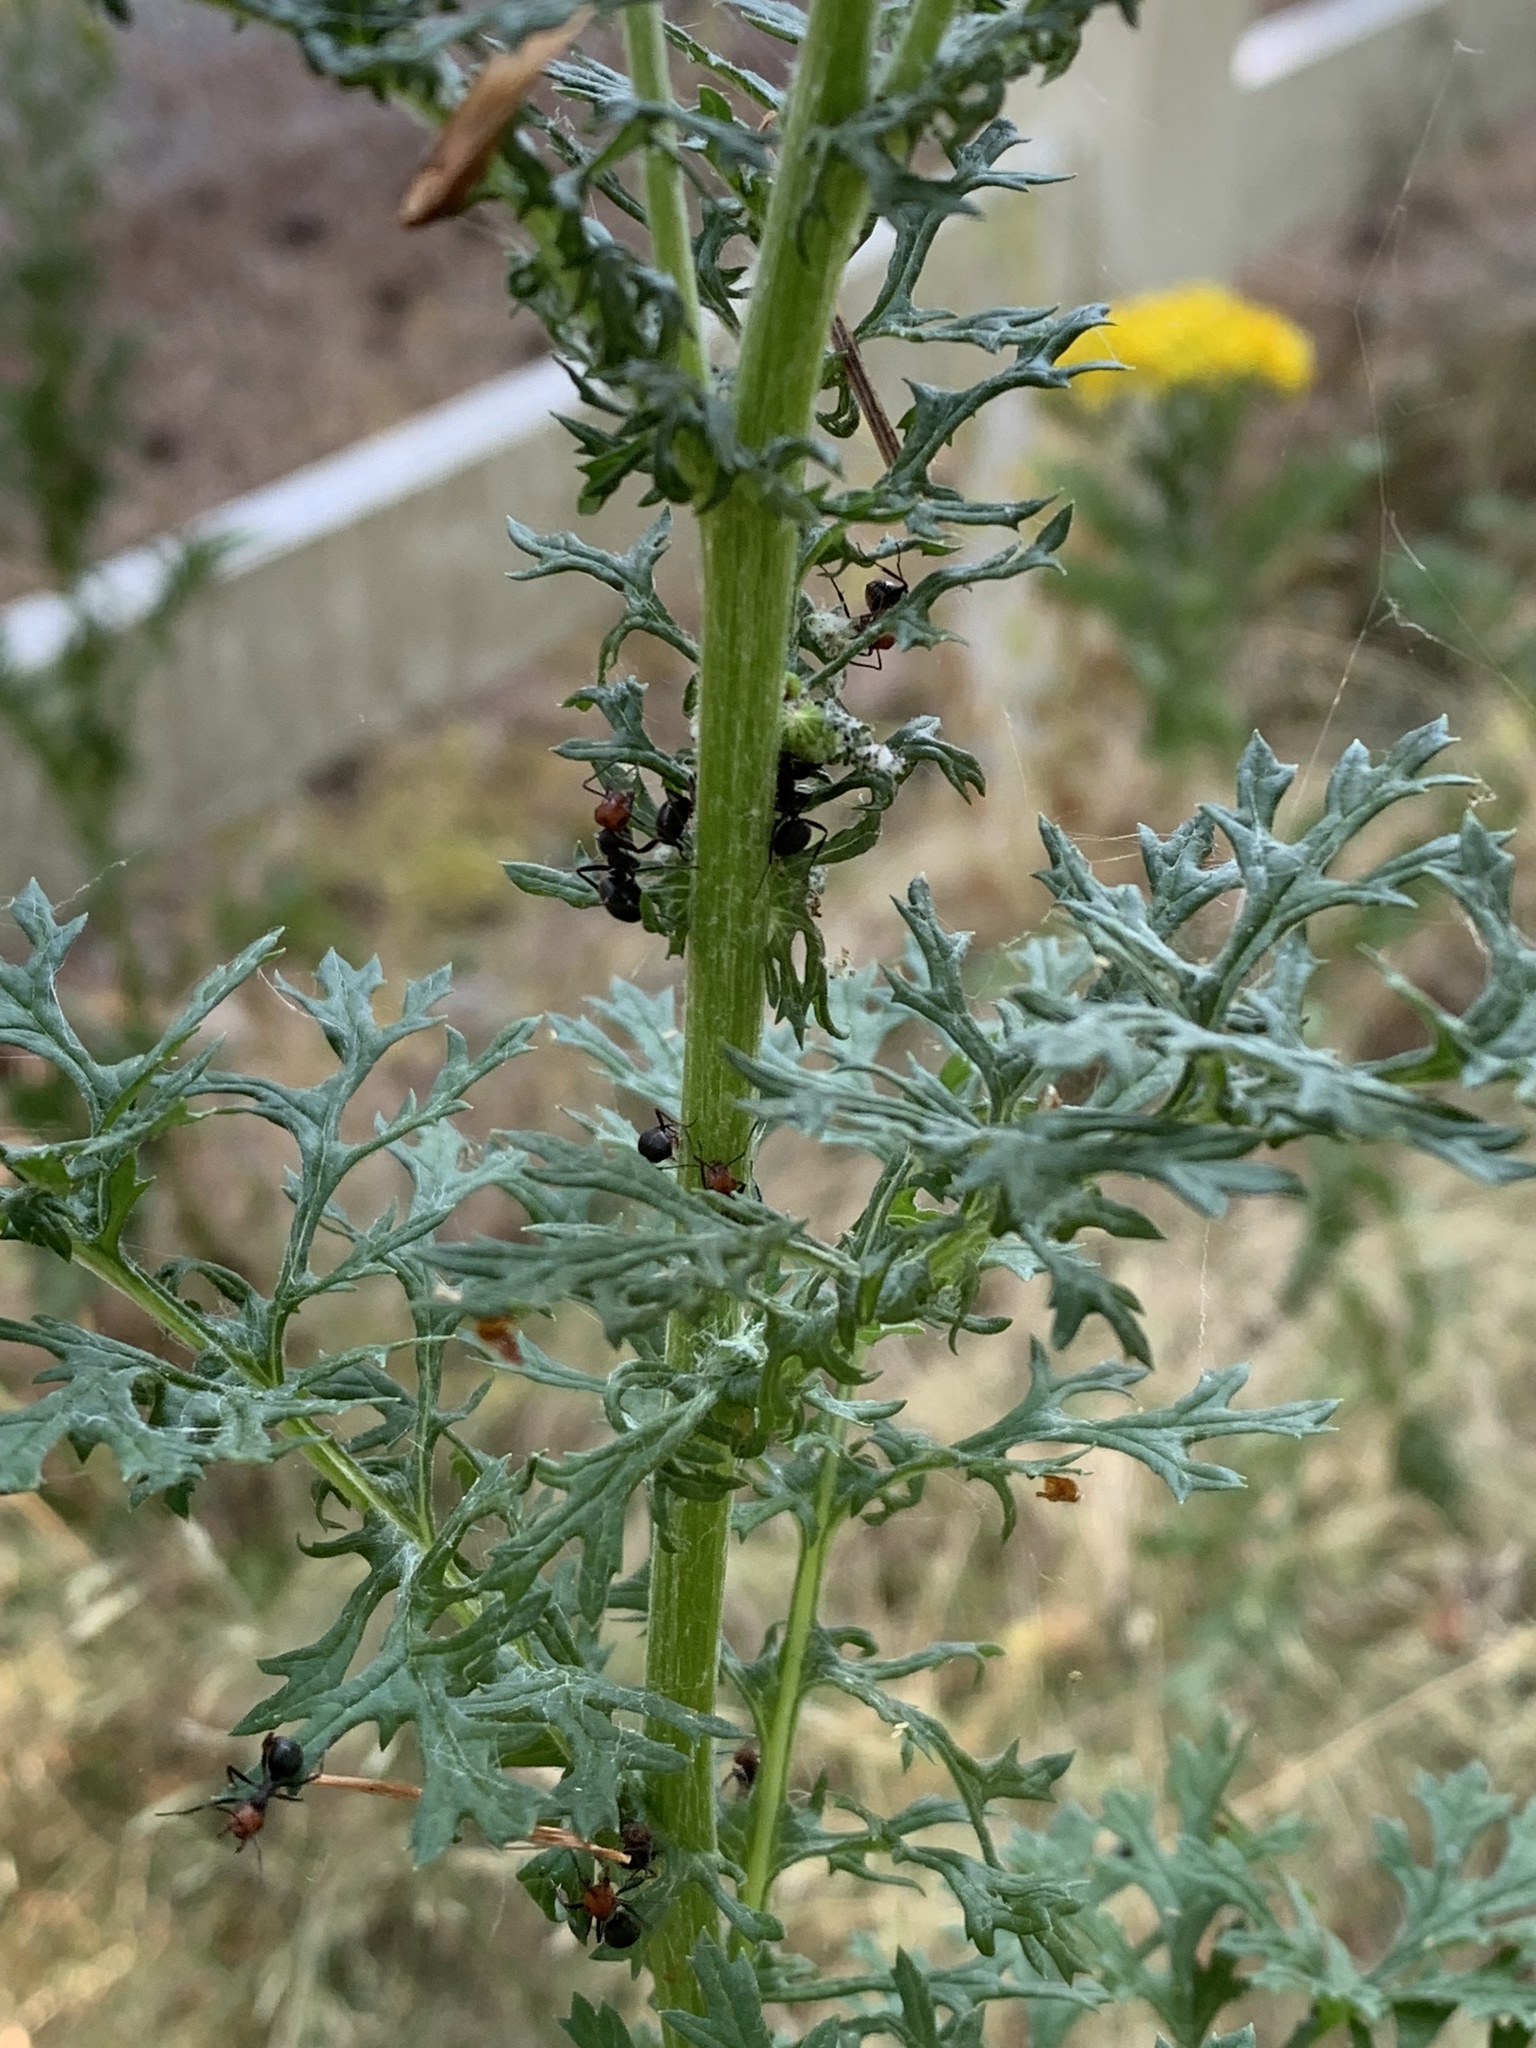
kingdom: Plantae
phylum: Tracheophyta
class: Magnoliopsida
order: Asterales
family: Asteraceae
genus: Jacobaea
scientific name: Jacobaea vulgaris
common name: Stinking willie
